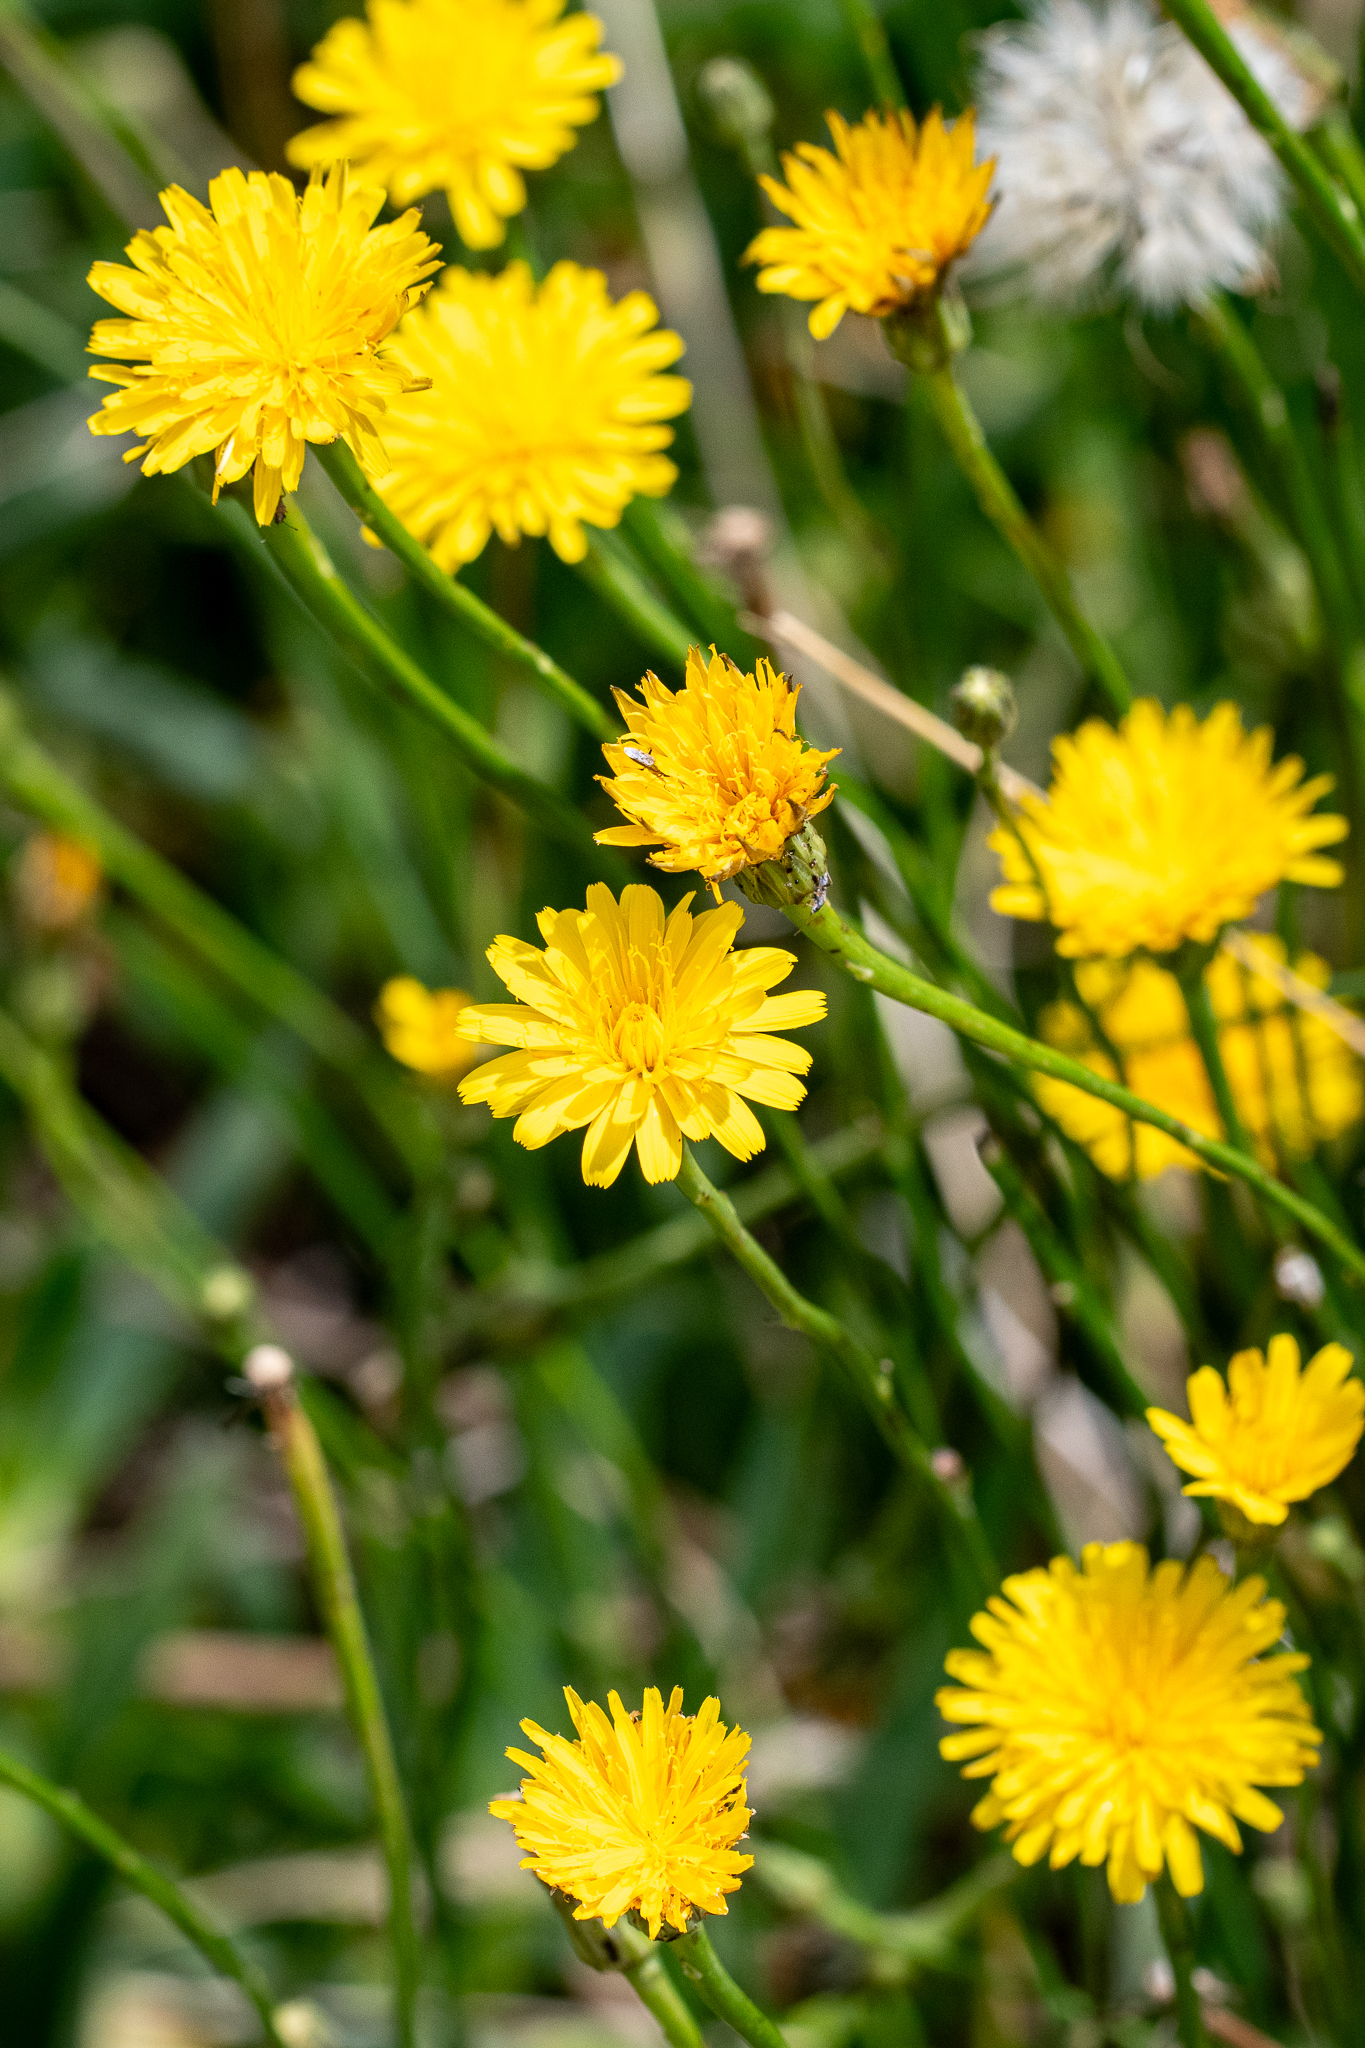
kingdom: Plantae
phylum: Tracheophyta
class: Magnoliopsida
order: Asterales
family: Asteraceae
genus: Hypochaeris
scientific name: Hypochaeris radicata
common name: Flatweed
